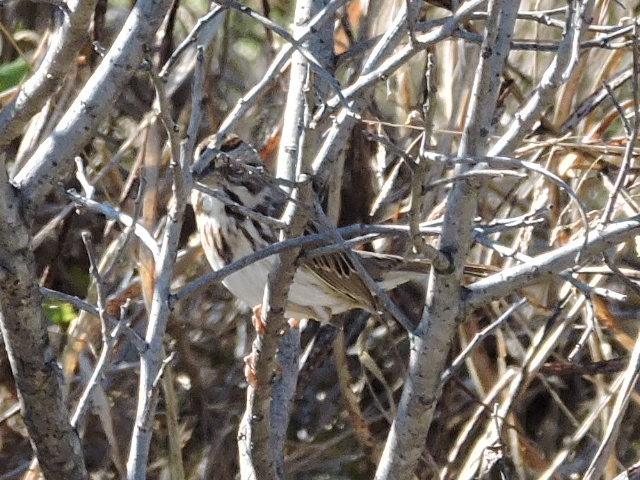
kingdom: Animalia
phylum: Chordata
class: Aves
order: Passeriformes
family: Passerellidae
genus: Melospiza
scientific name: Melospiza melodia
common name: Song sparrow
